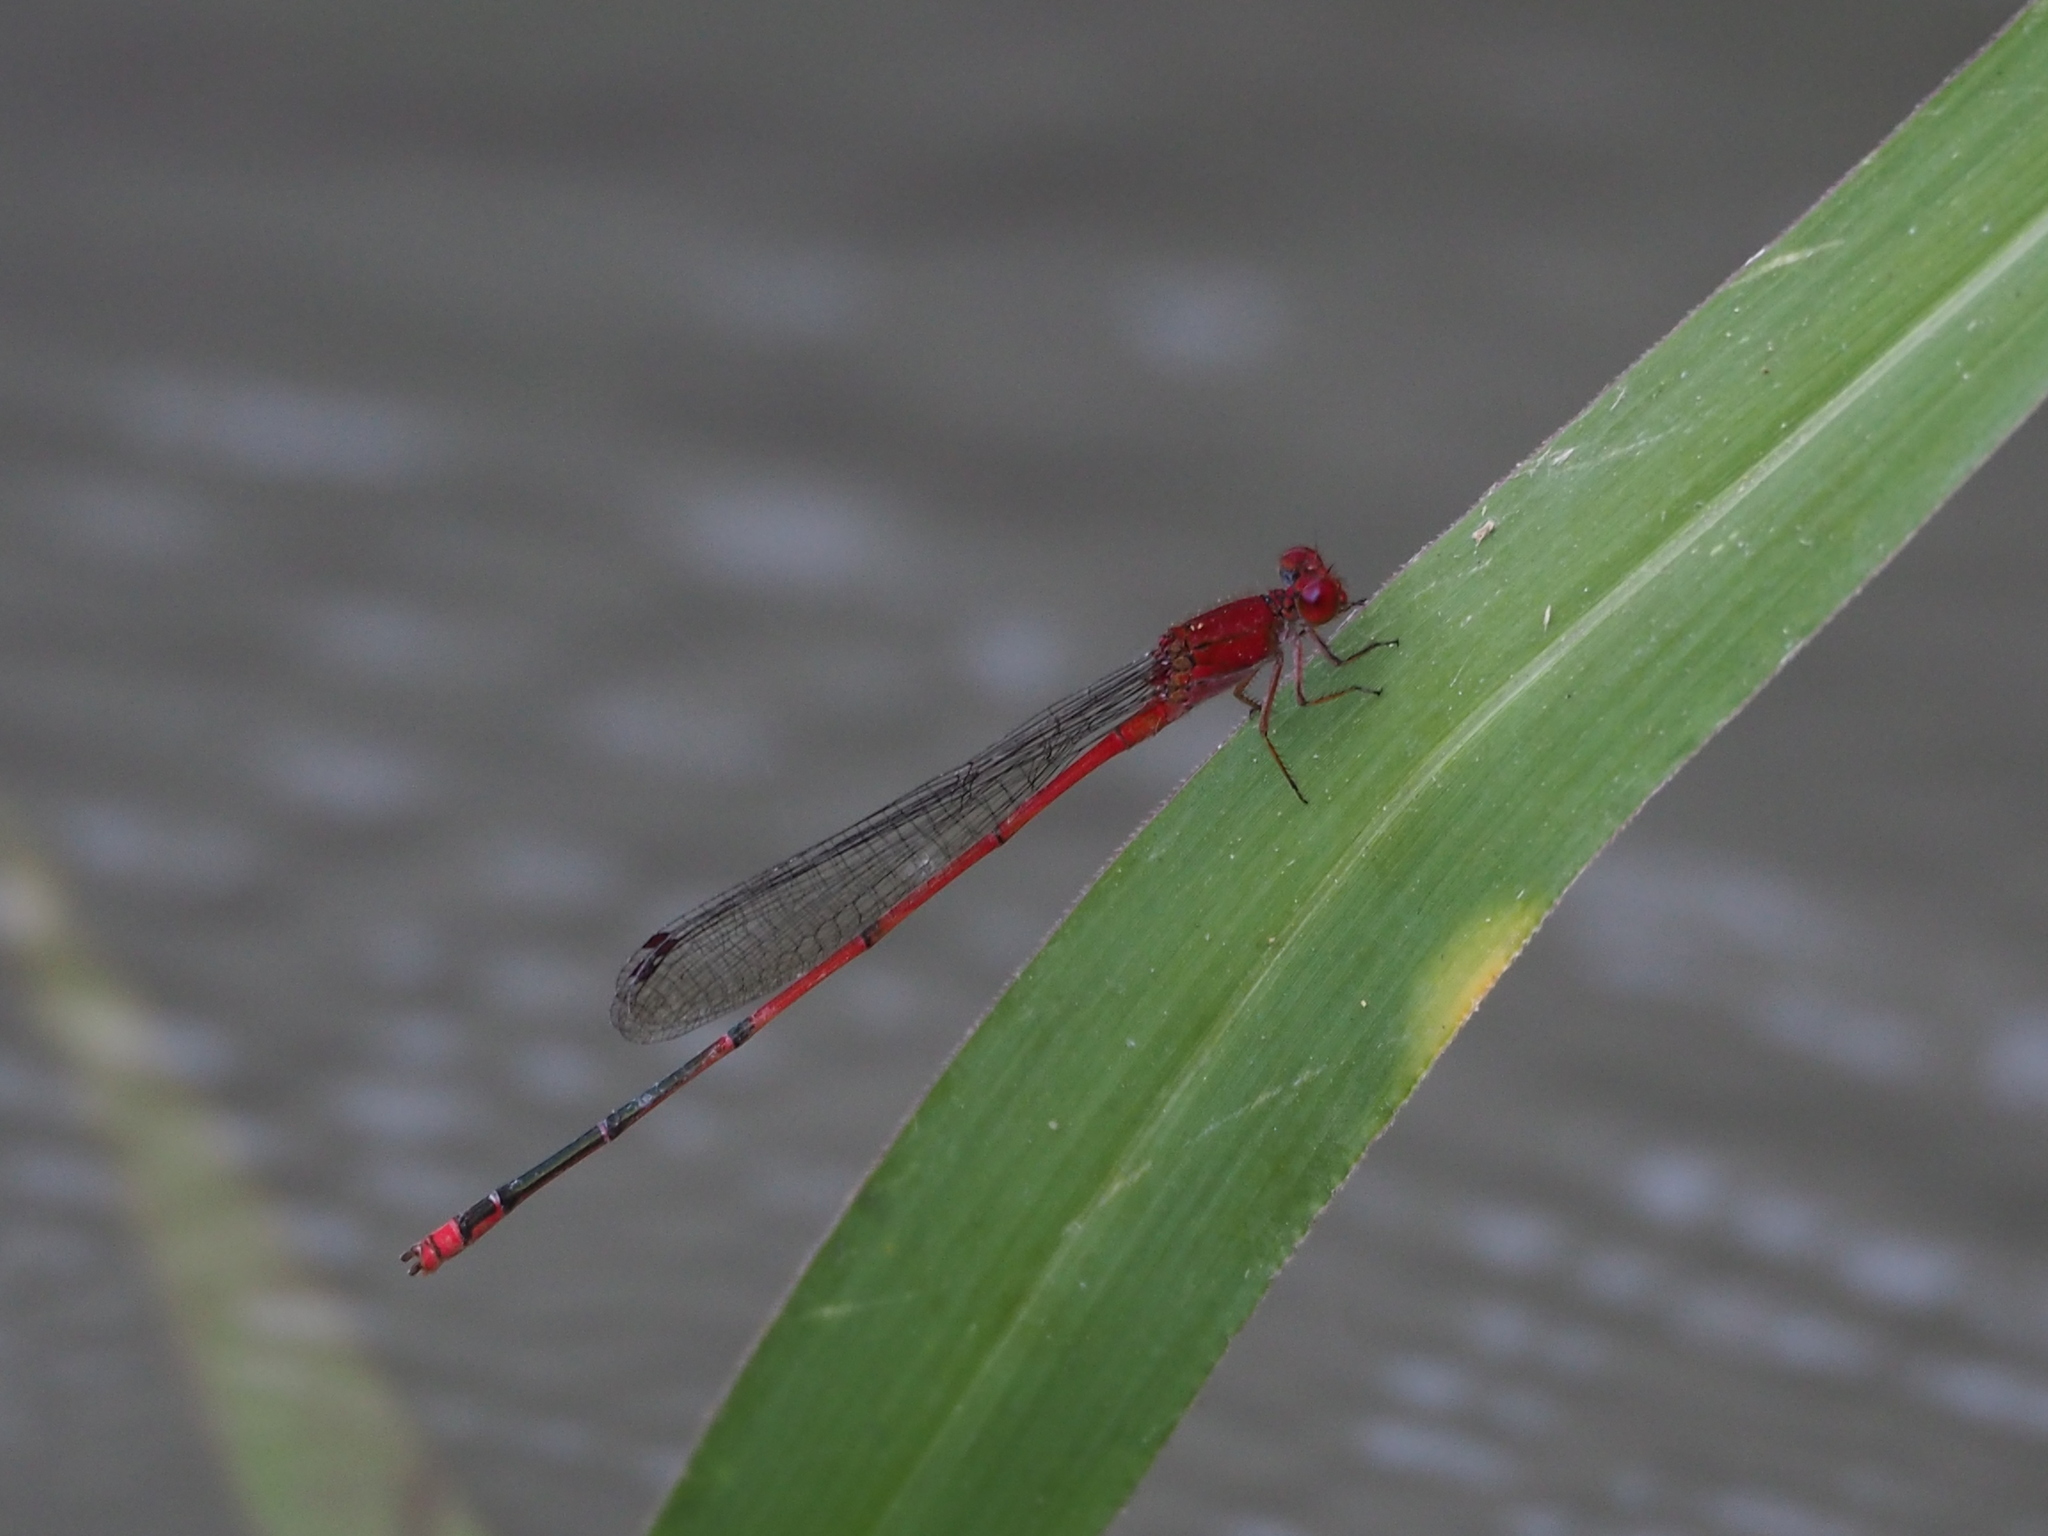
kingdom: Animalia
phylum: Arthropoda
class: Insecta
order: Odonata
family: Coenagrionidae
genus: Pseudagrion
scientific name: Pseudagrion pilidorsum
